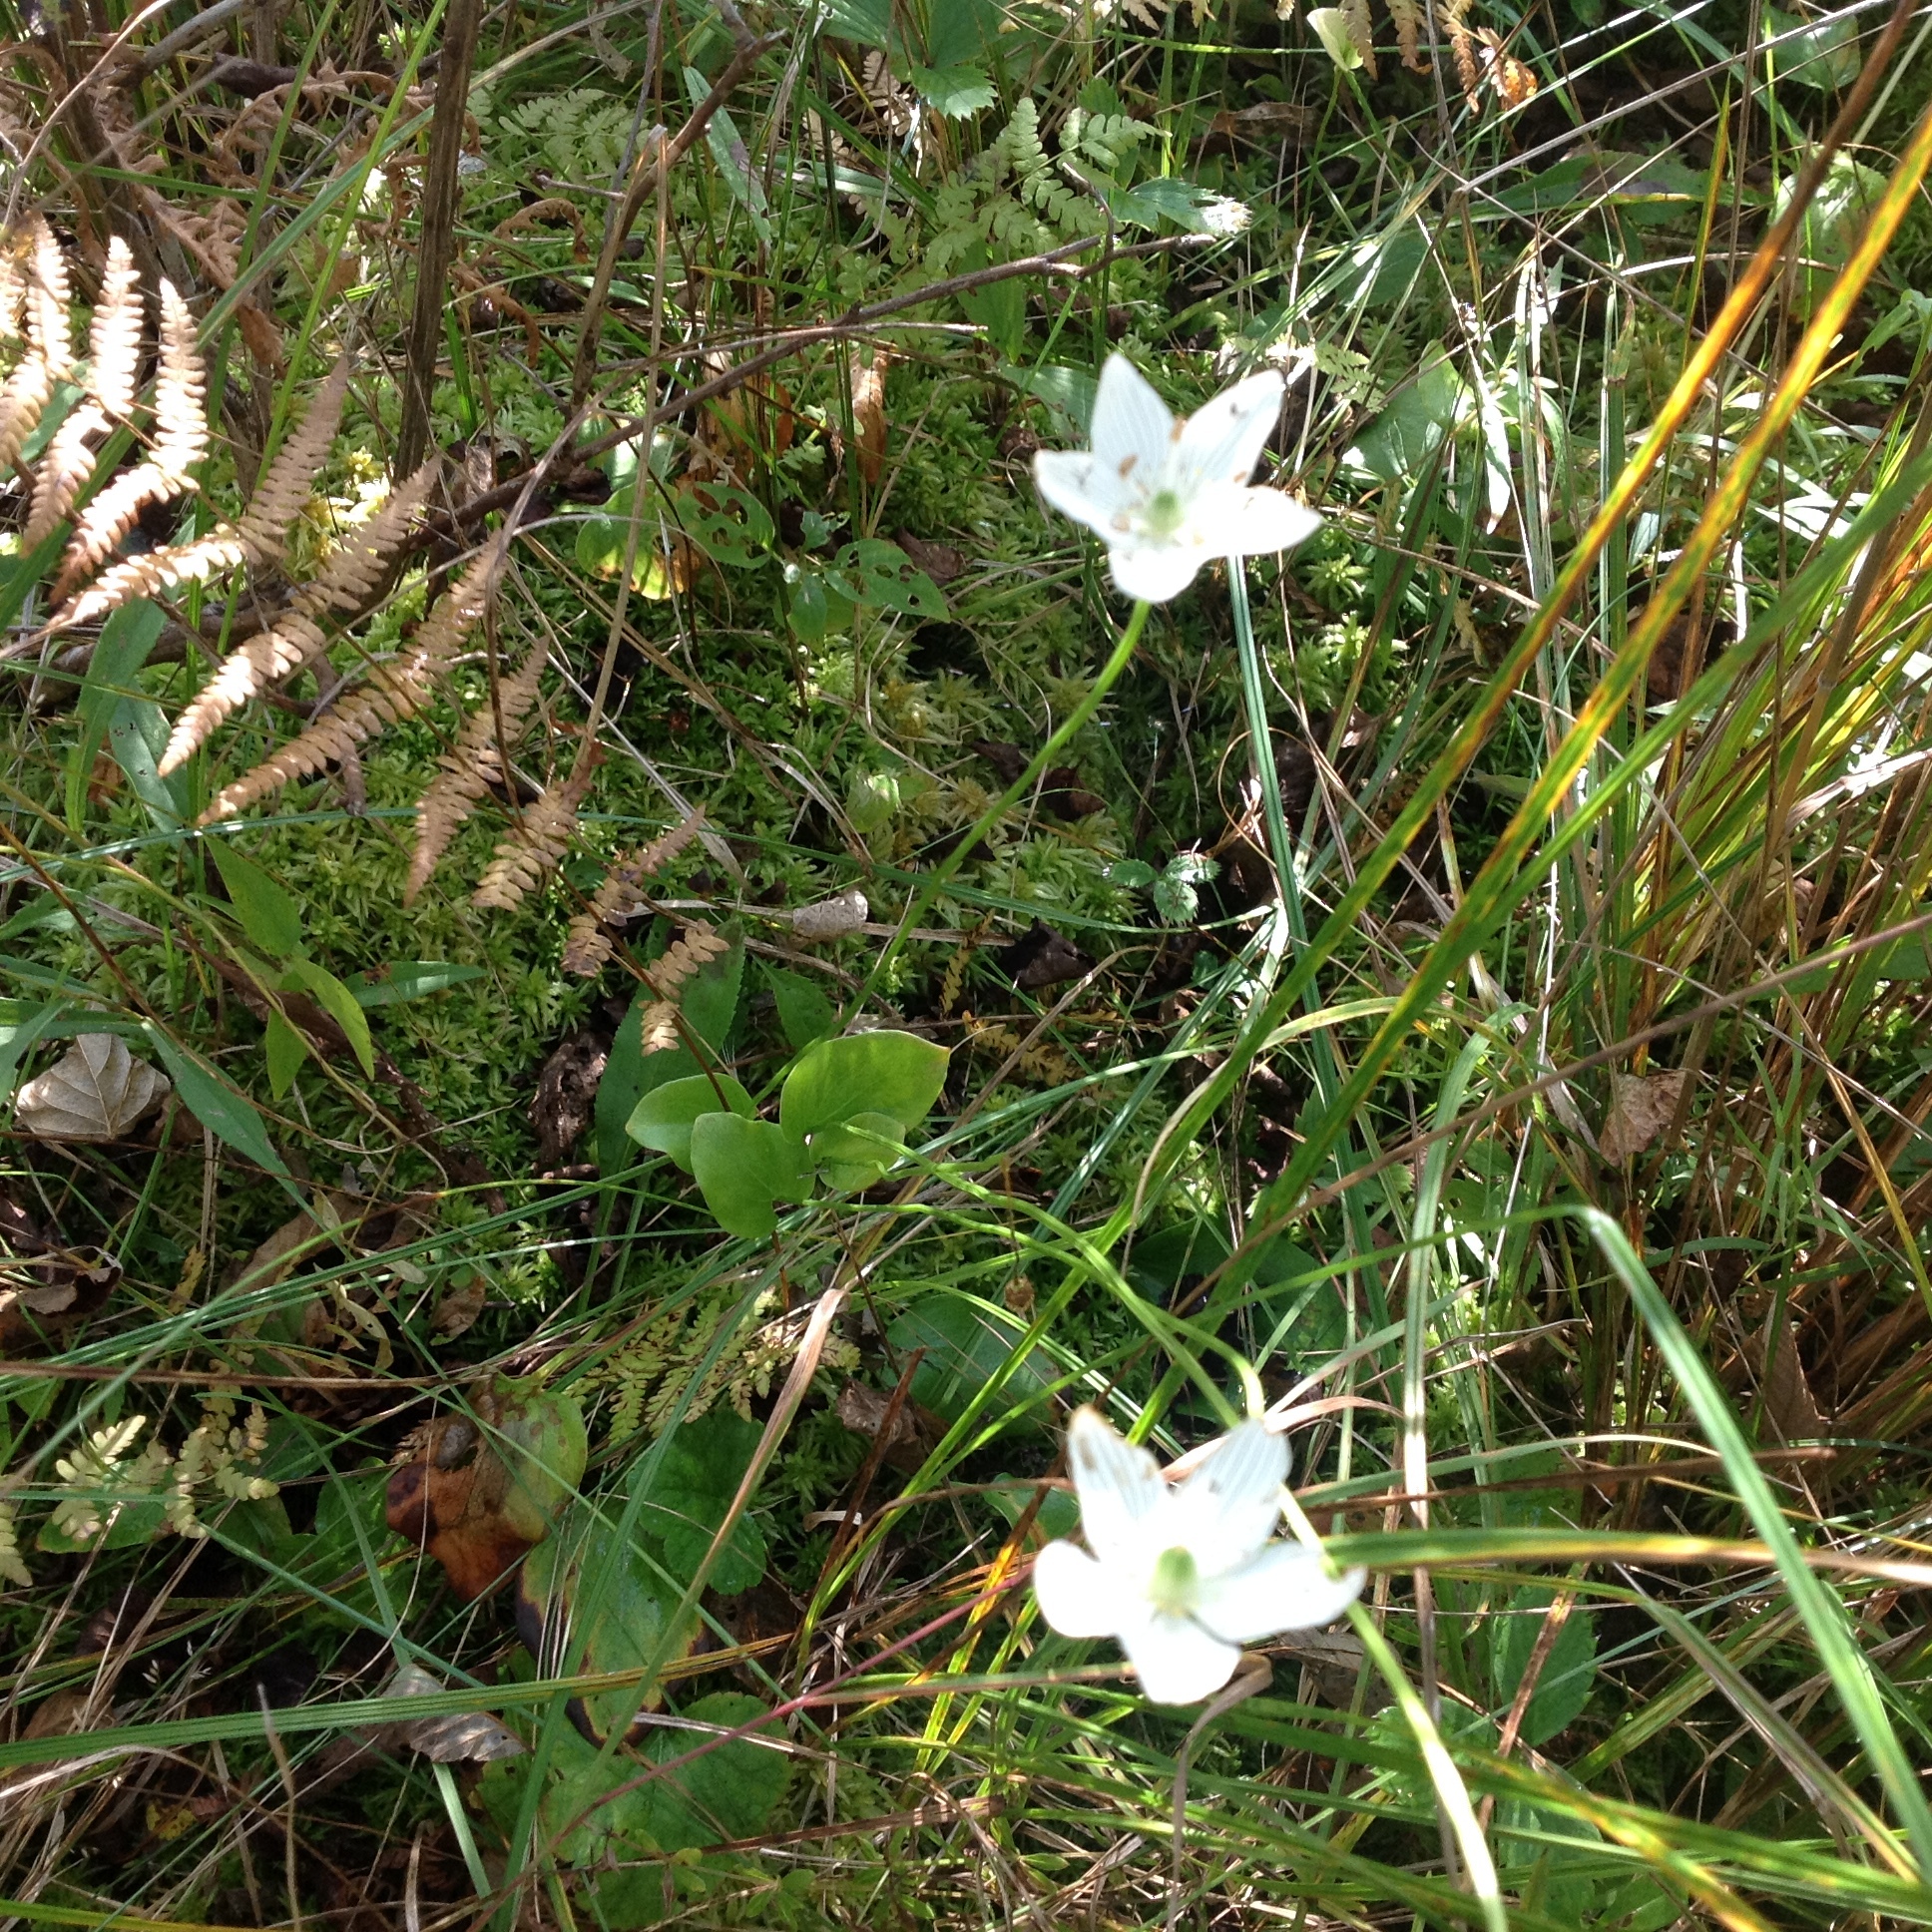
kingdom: Plantae
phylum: Tracheophyta
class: Magnoliopsida
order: Celastrales
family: Parnassiaceae
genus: Parnassia
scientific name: Parnassia glauca
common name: American grass-of-parnassus
